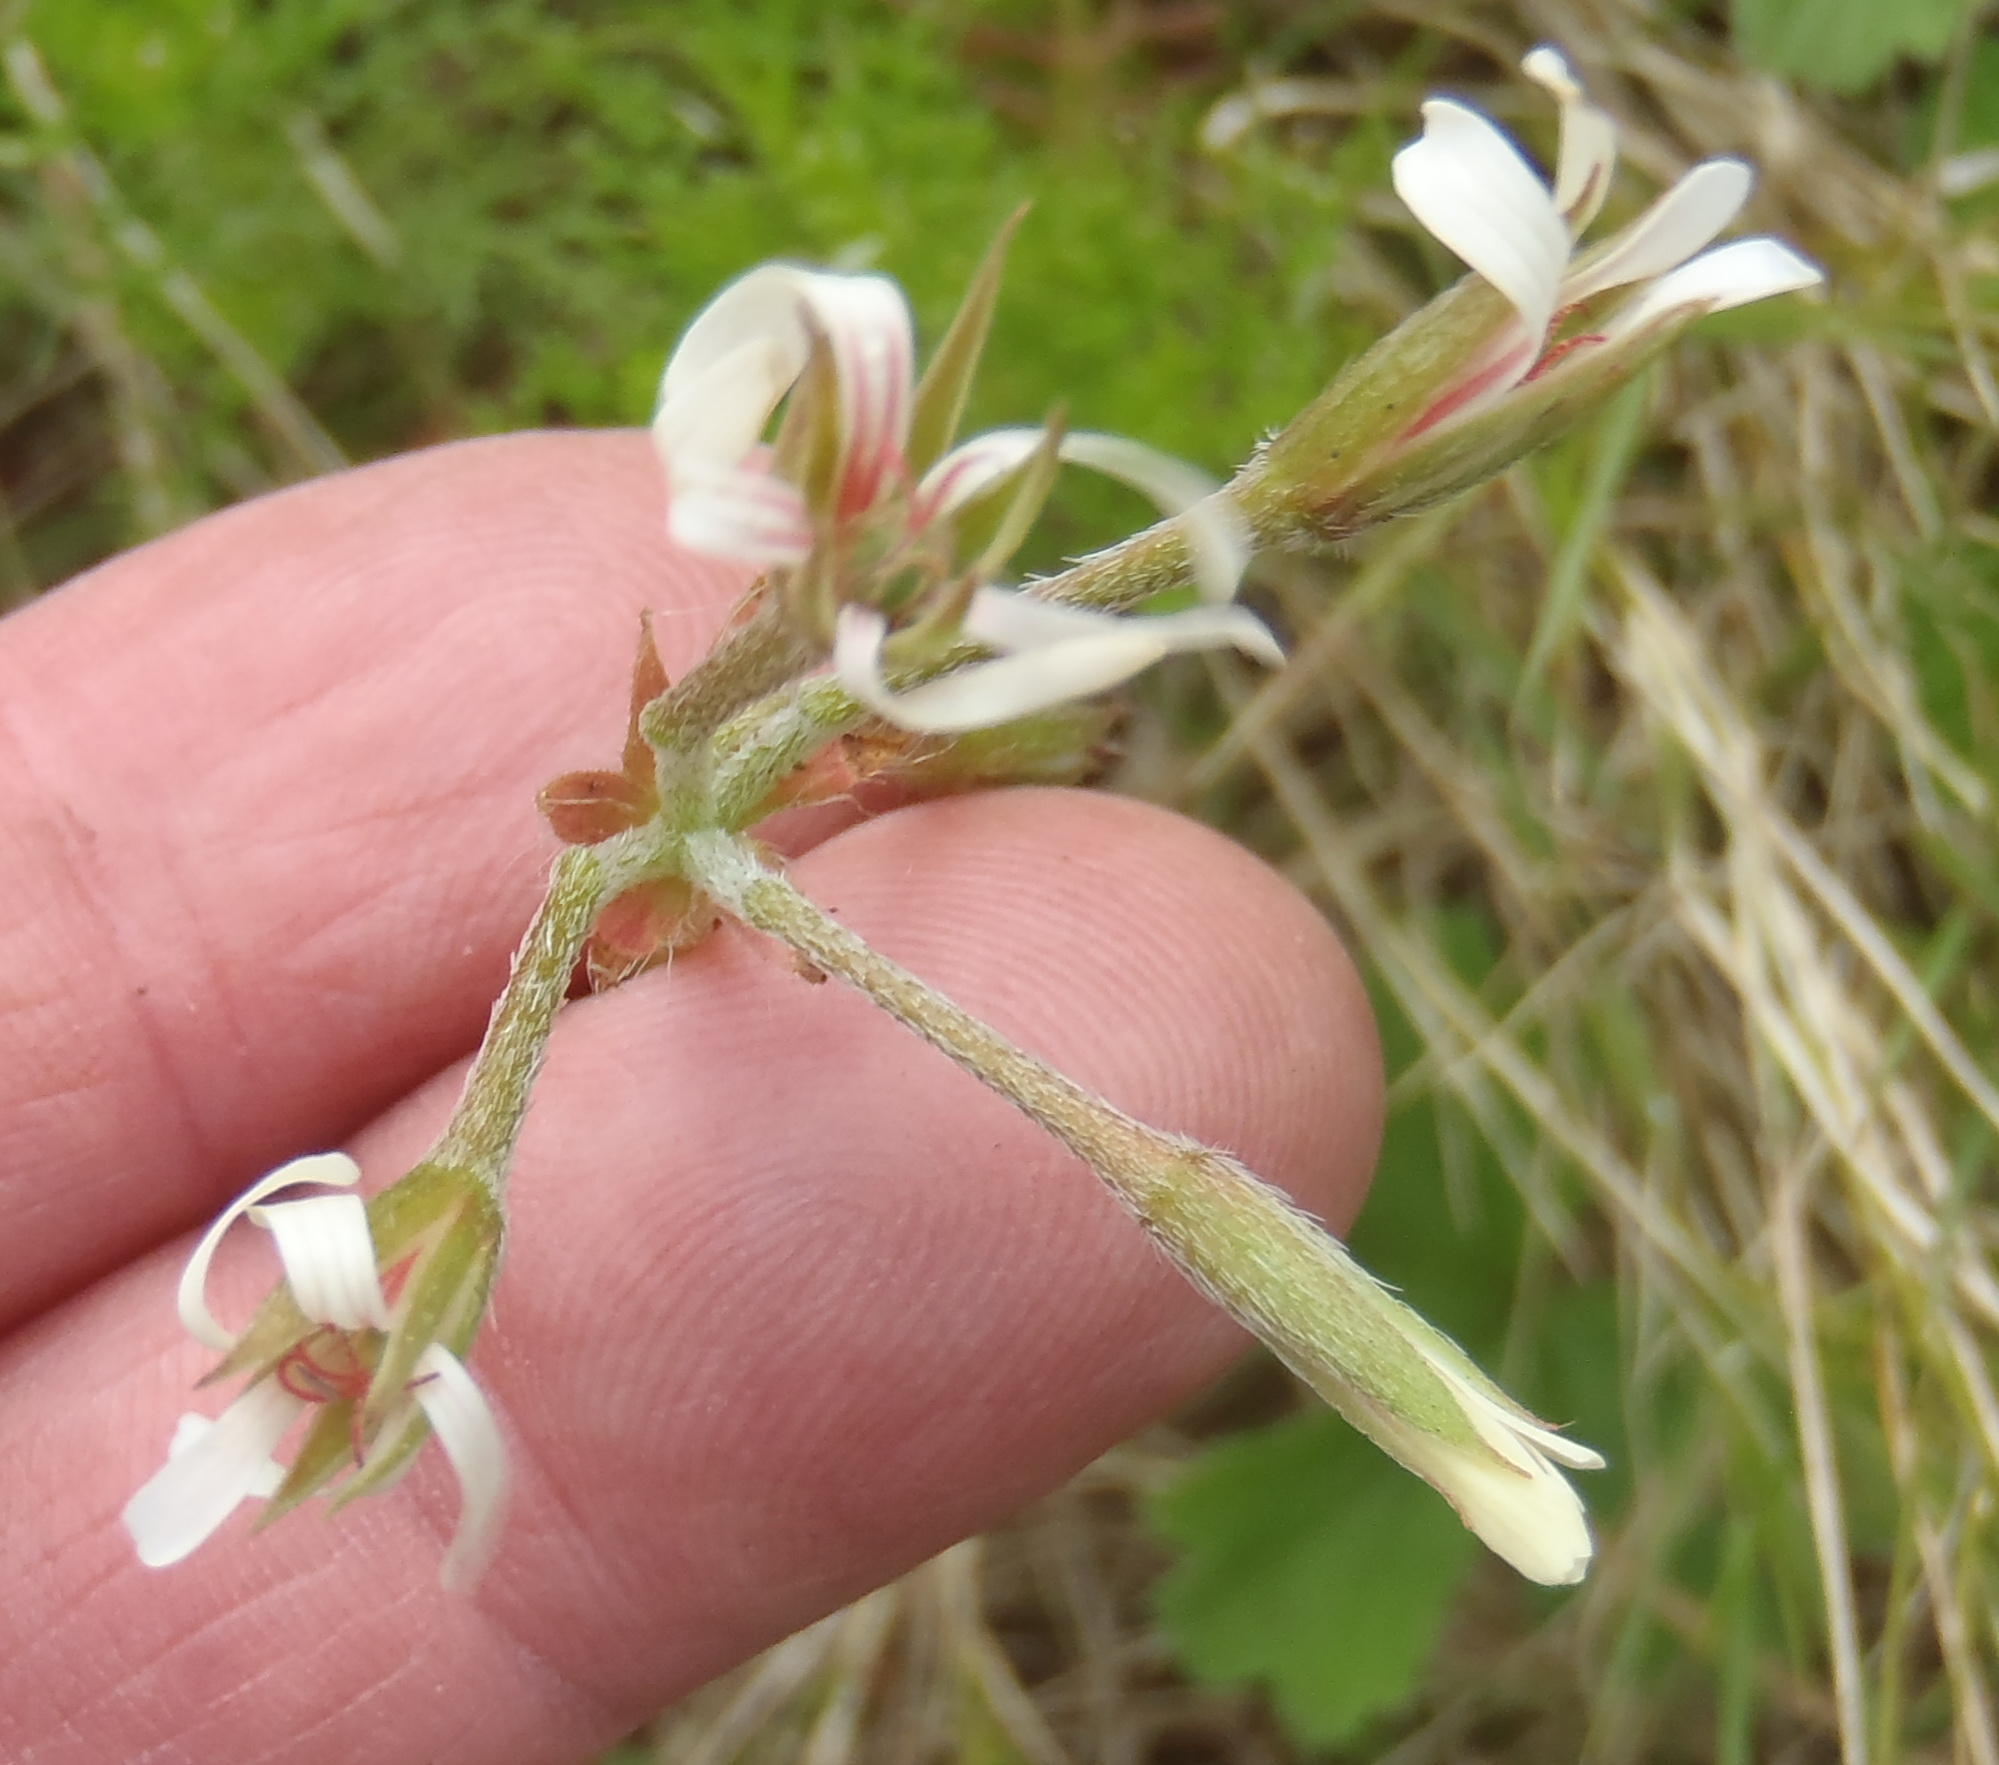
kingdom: Plantae
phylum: Tracheophyta
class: Magnoliopsida
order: Geraniales
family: Geraniaceae
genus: Pelargonium
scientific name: Pelargonium alchemilloides
